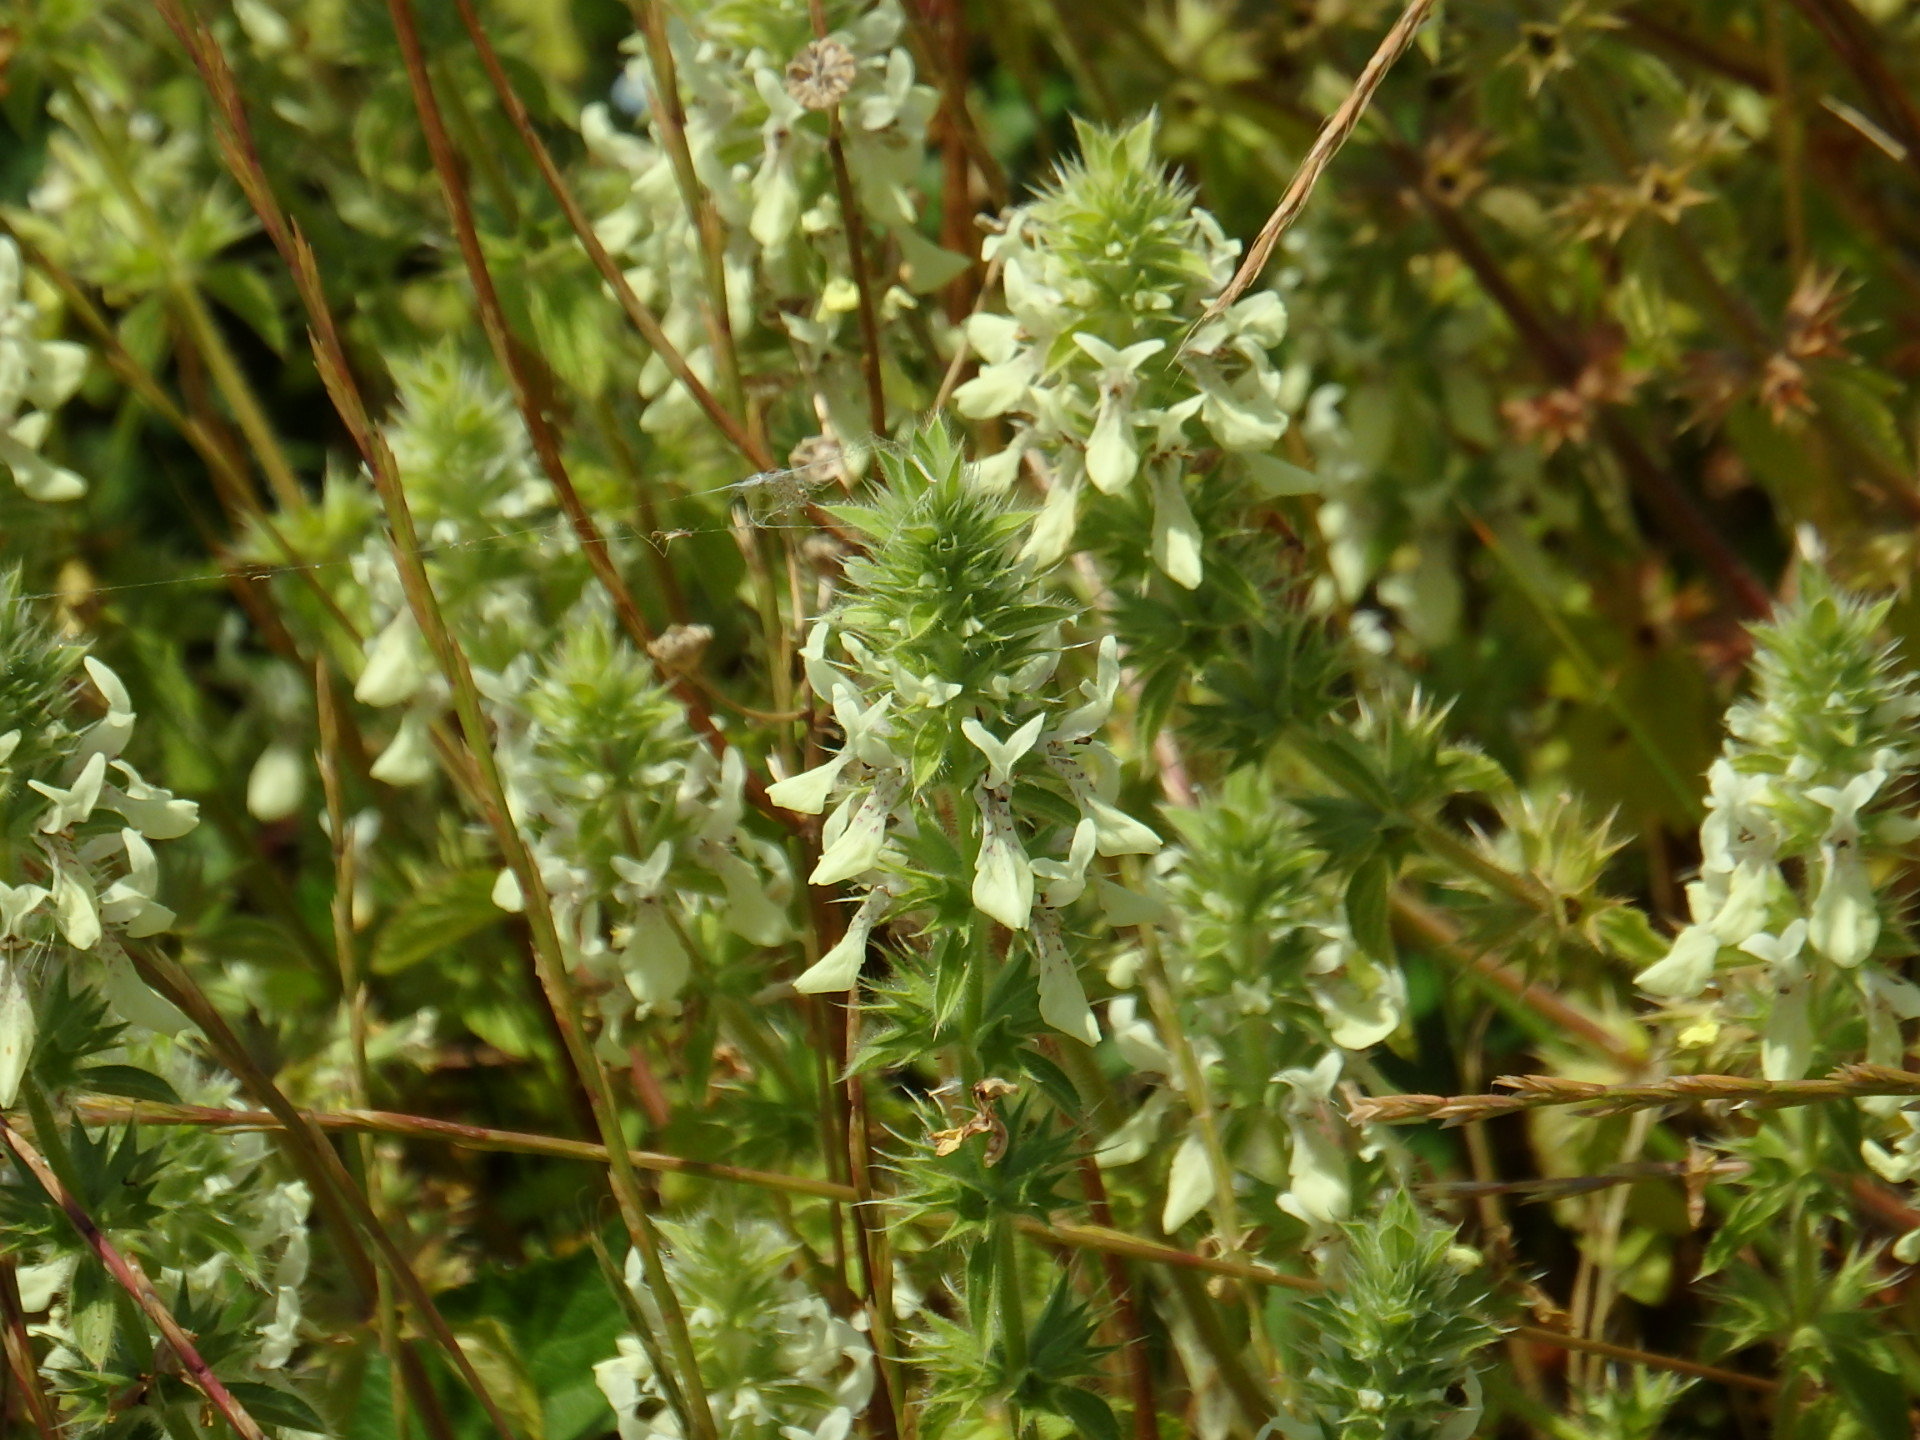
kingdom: Plantae
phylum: Tracheophyta
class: Magnoliopsida
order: Lamiales
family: Lamiaceae
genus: Stachys
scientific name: Stachys ocymastrum
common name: Italian hedgenettle
